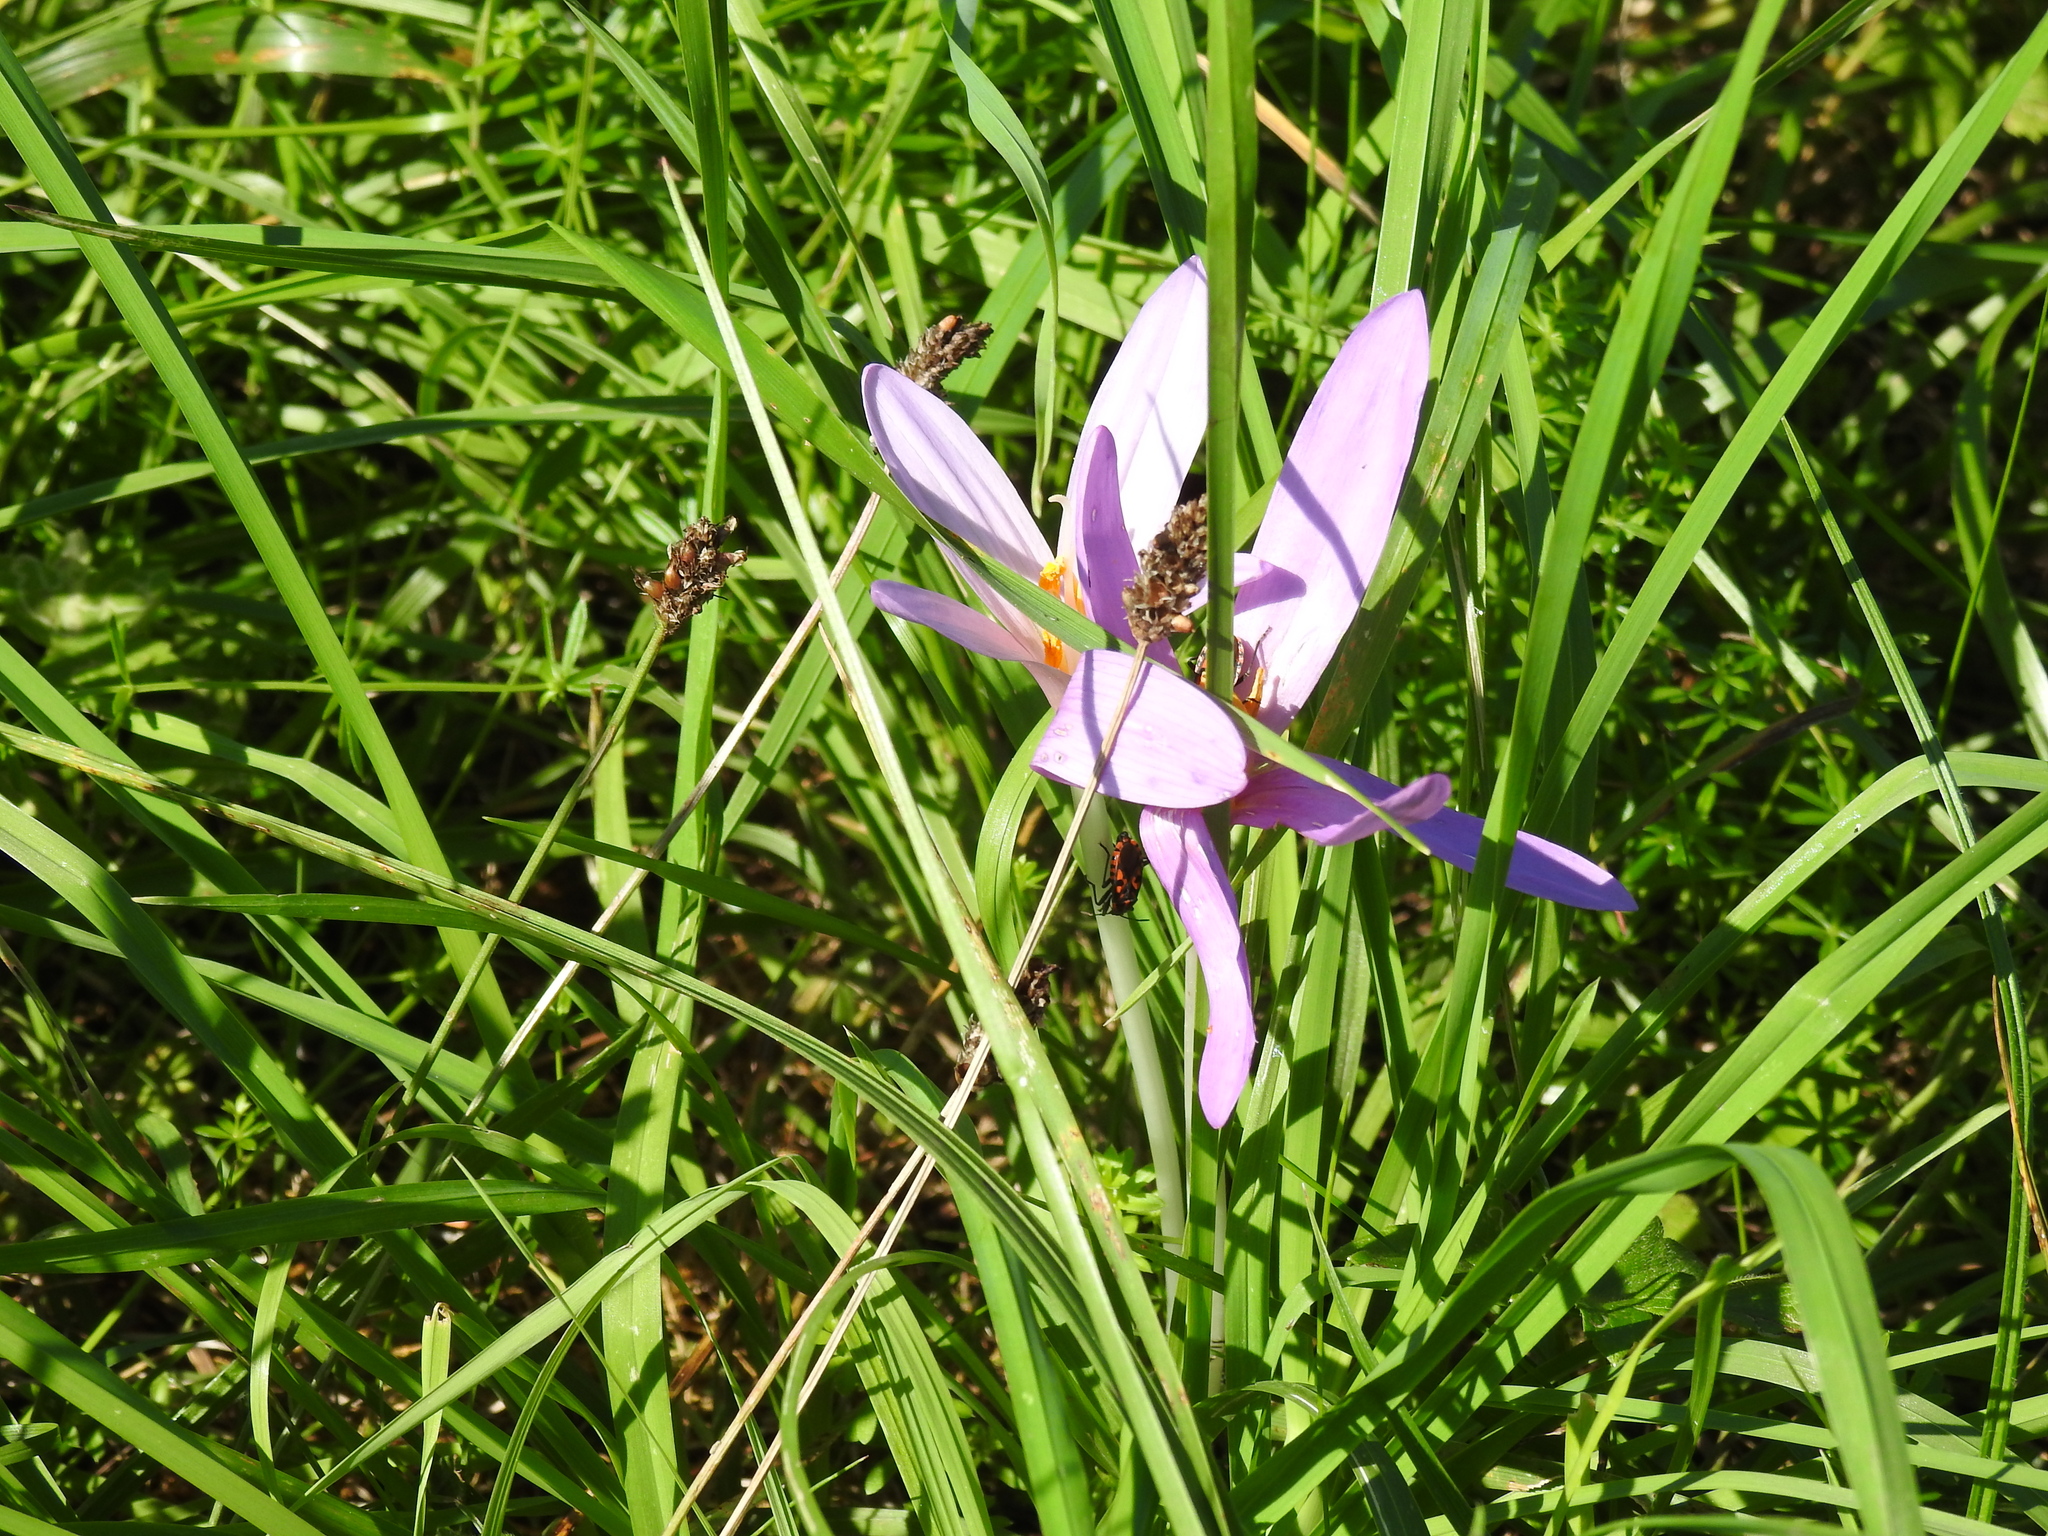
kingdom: Plantae
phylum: Tracheophyta
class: Liliopsida
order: Liliales
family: Colchicaceae
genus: Colchicum
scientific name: Colchicum autumnale
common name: Autumn crocus
